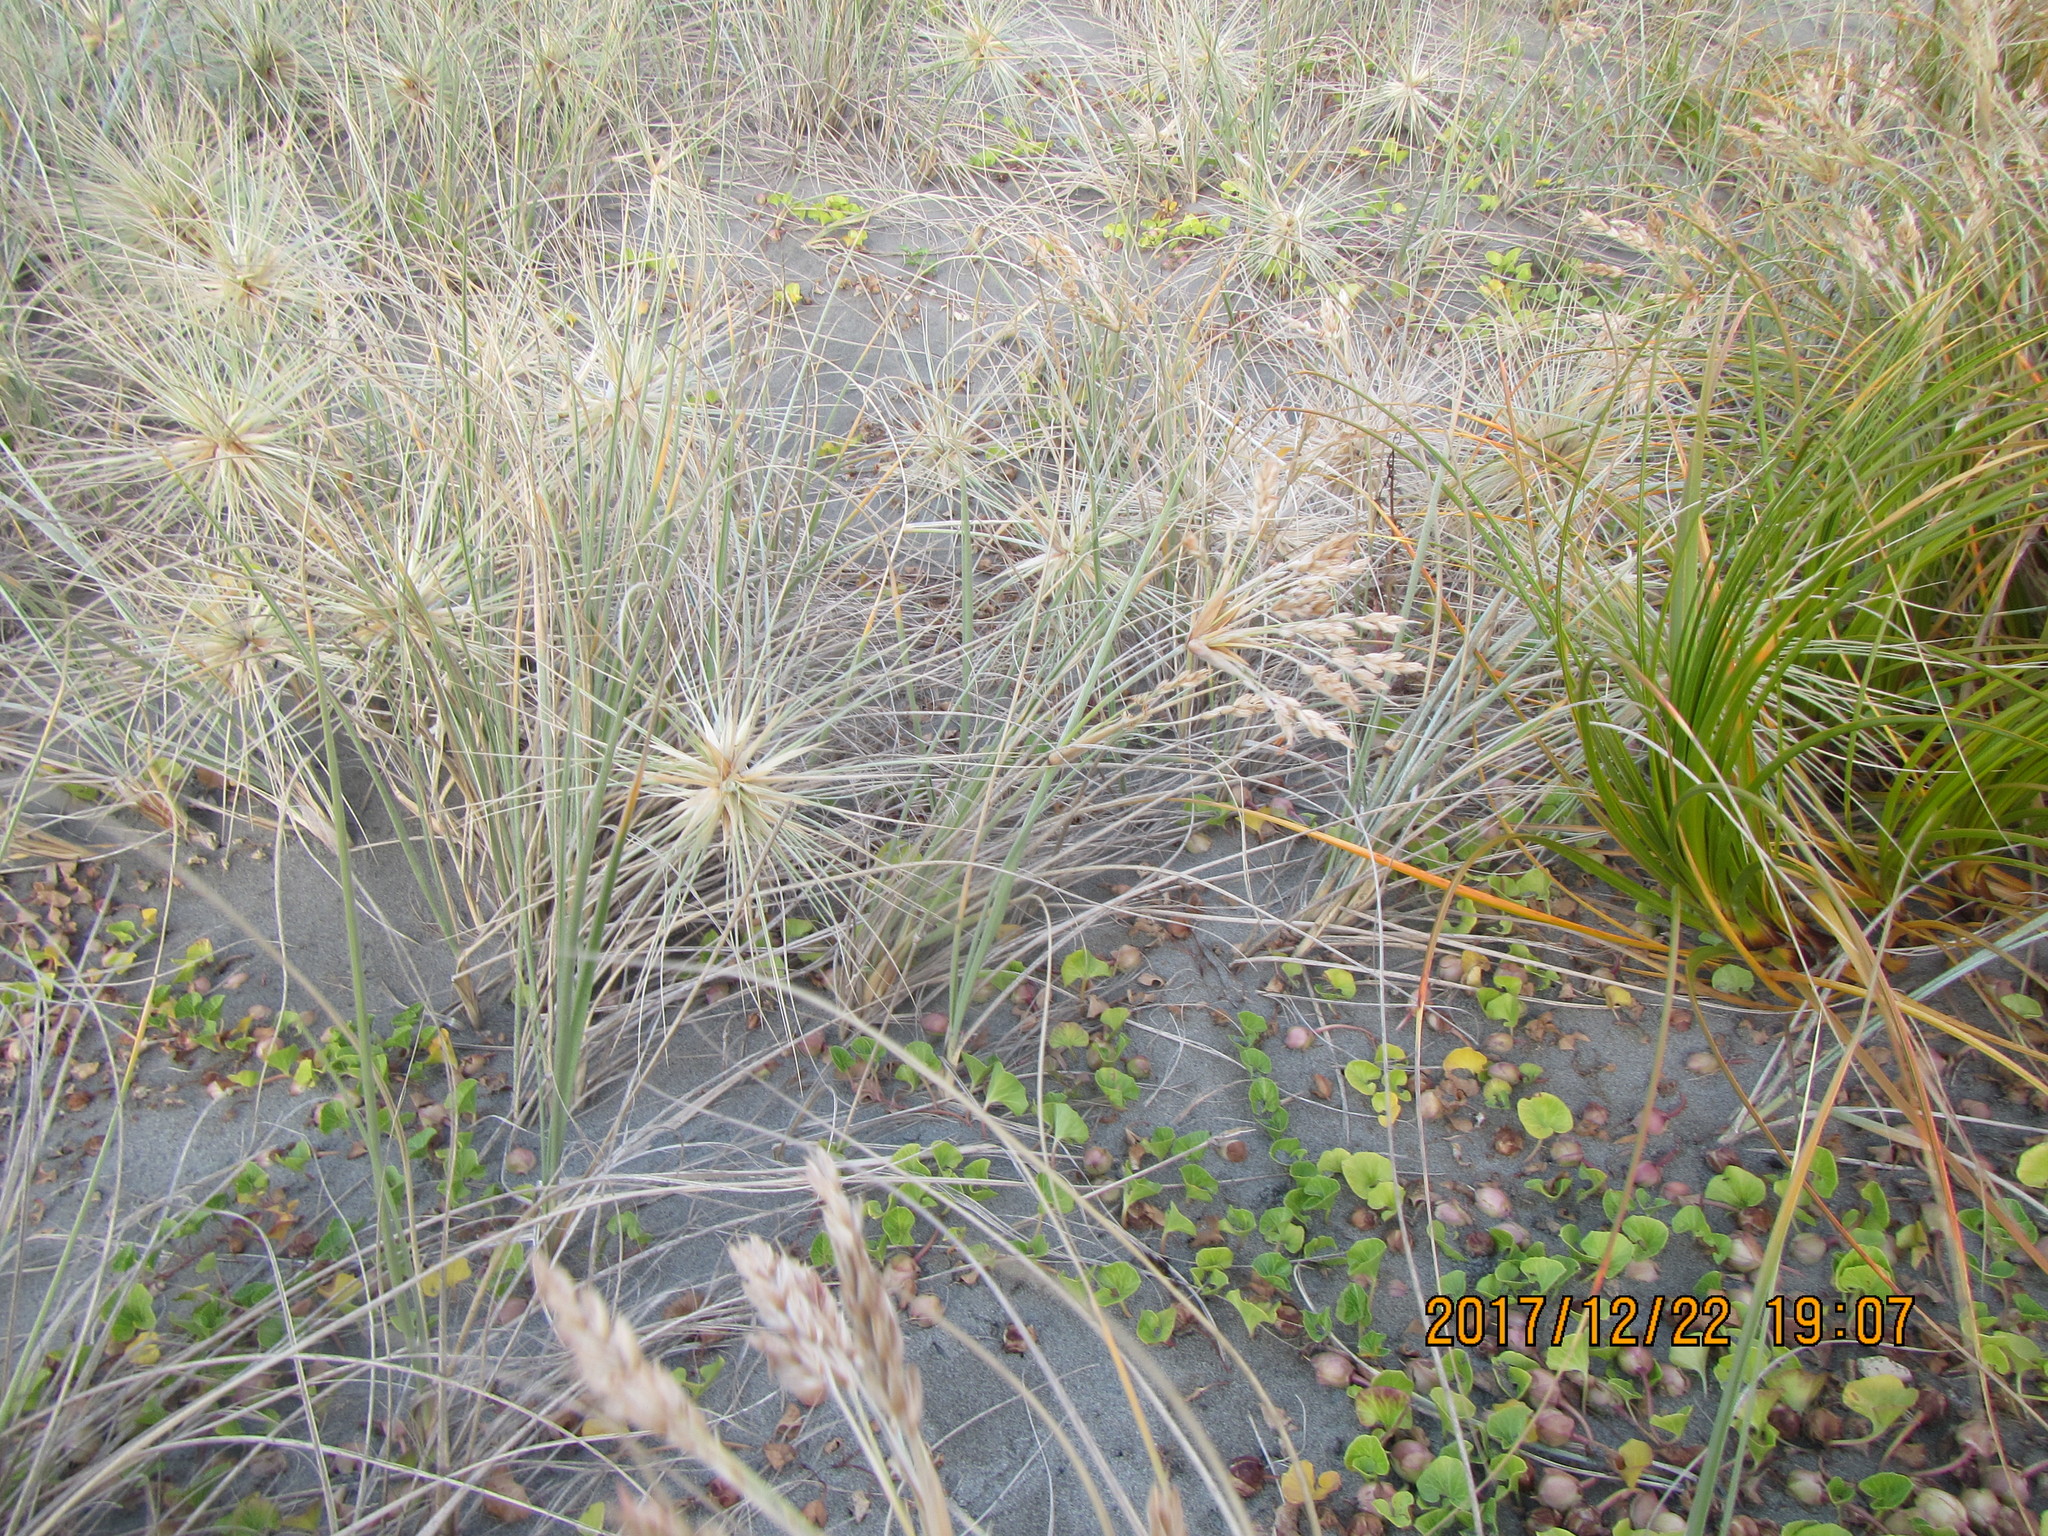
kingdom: Plantae
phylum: Tracheophyta
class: Liliopsida
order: Poales
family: Poaceae
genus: Spinifex
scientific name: Spinifex sericeus
